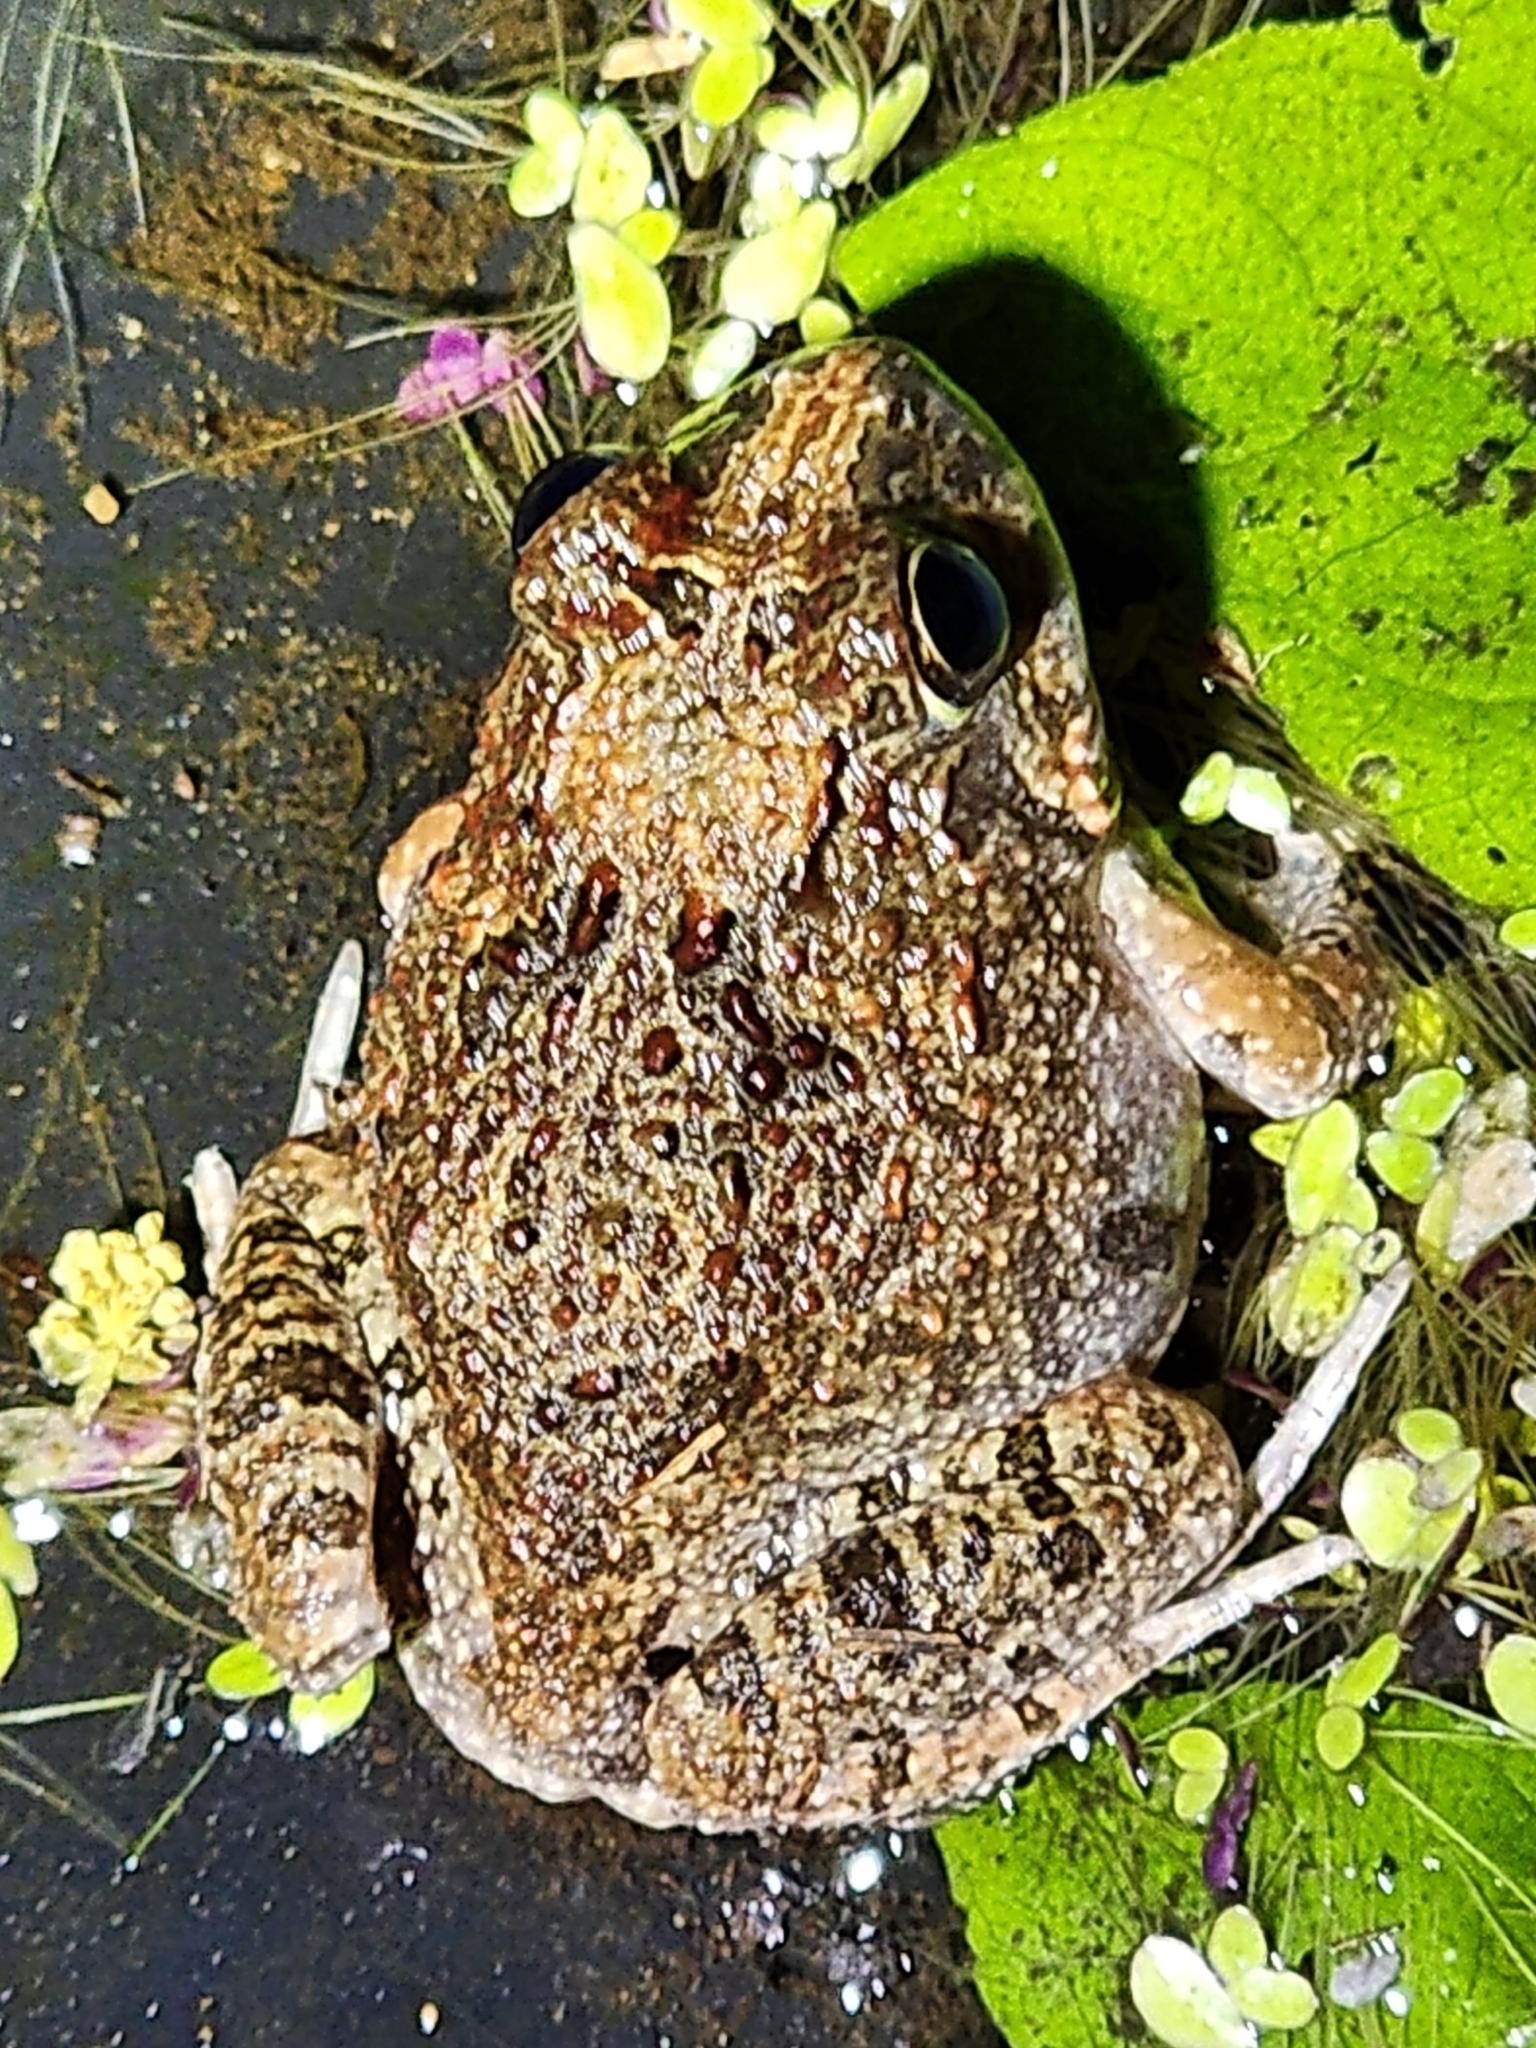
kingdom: Animalia
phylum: Chordata
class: Amphibia
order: Anura
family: Limnodynastidae
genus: Platyplectrum
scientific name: Platyplectrum ornatum
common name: Ornate burrowing frog
